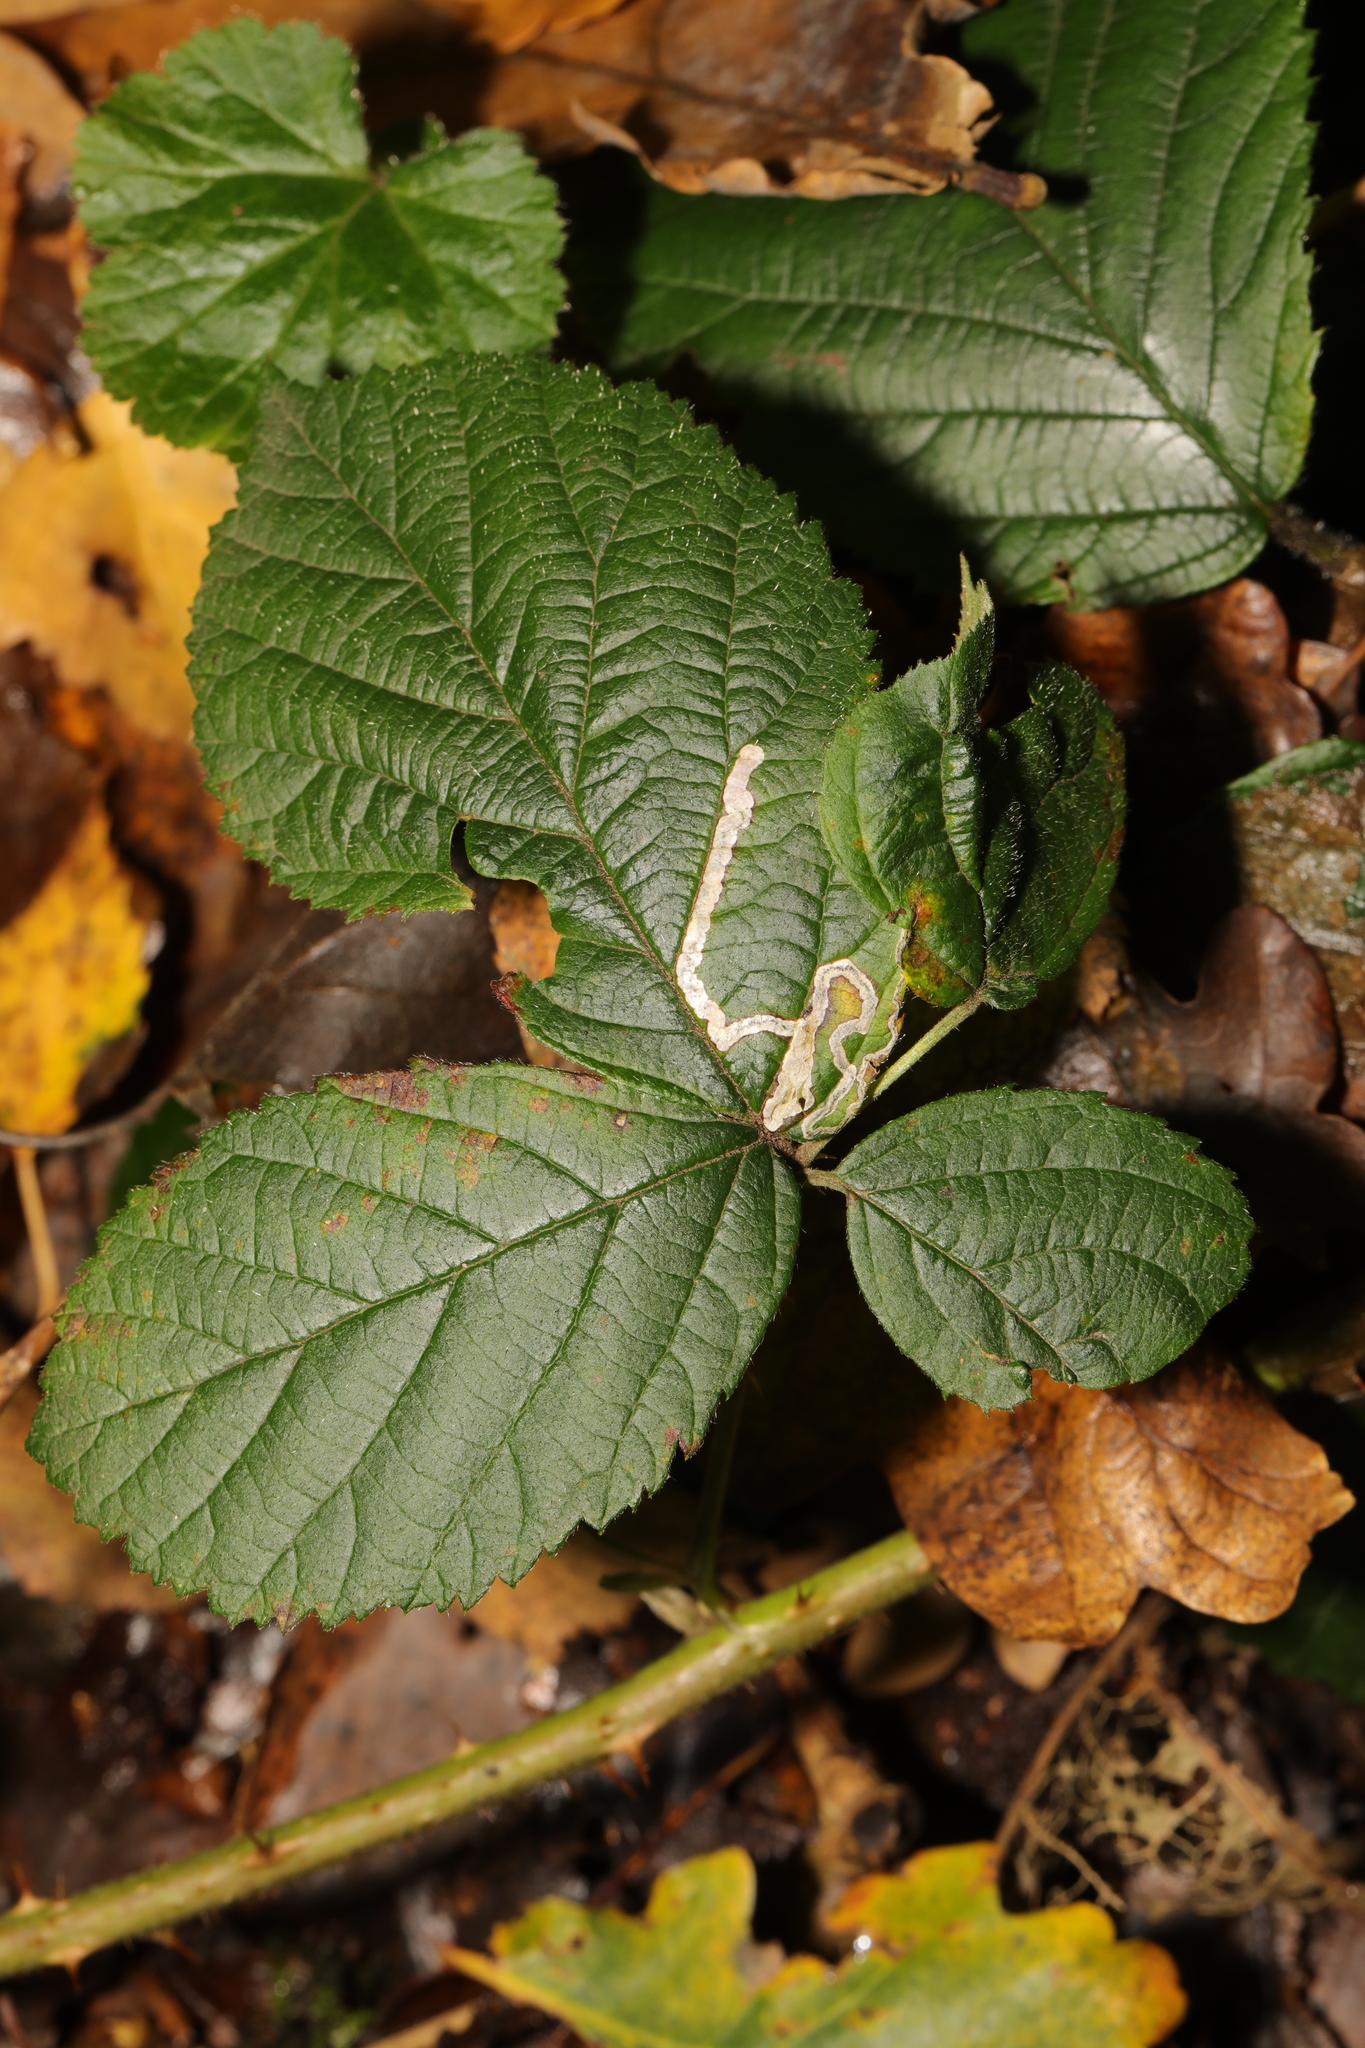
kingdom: Animalia
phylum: Arthropoda
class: Insecta
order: Lepidoptera
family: Nepticulidae
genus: Stigmella
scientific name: Stigmella aurella
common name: Golden pigmy
